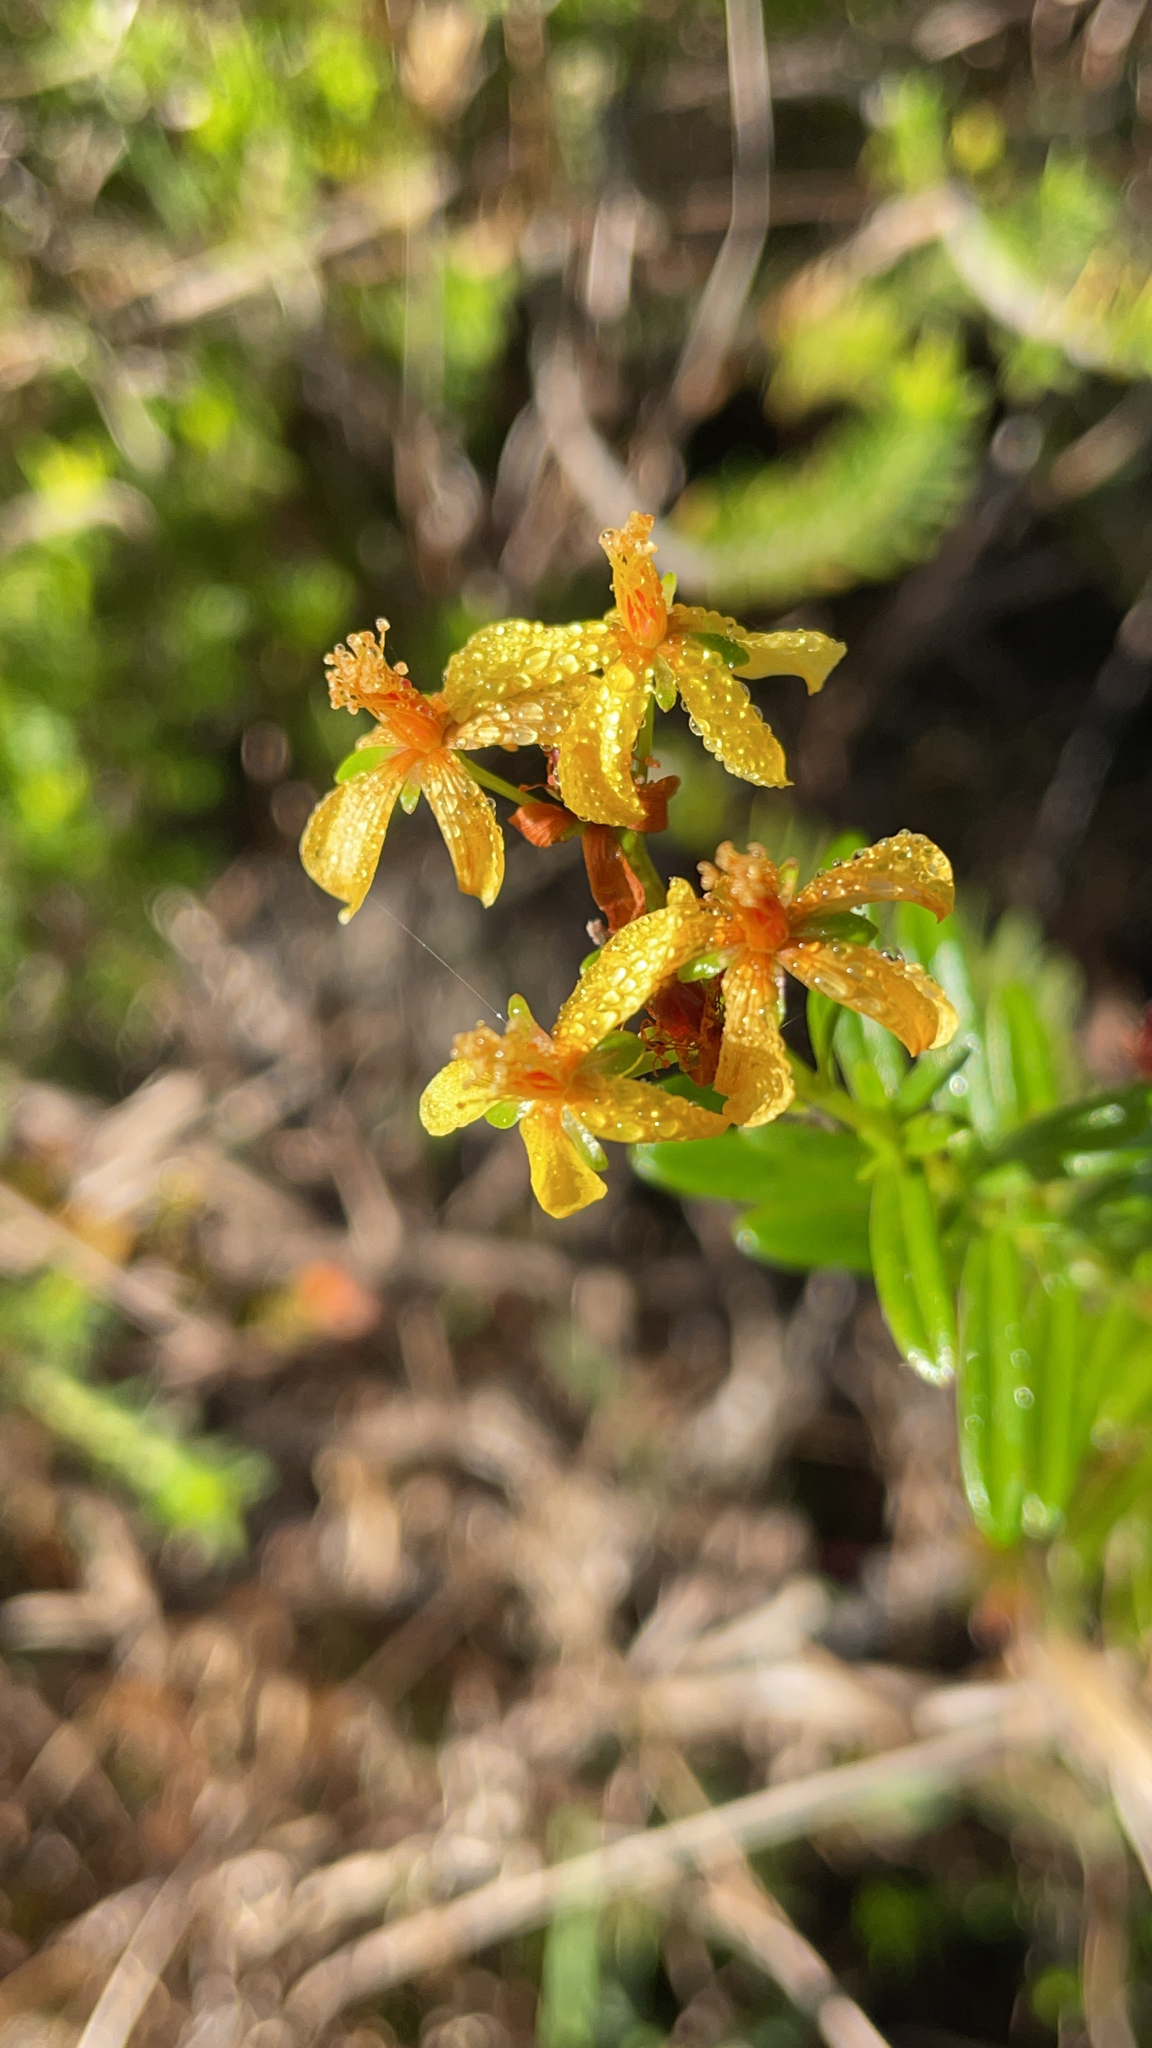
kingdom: Plantae
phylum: Tracheophyta
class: Magnoliopsida
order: Malpighiales
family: Hypericaceae
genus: Hypericum
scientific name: Hypericum cistifolium
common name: Round-pod st. john's-wort
